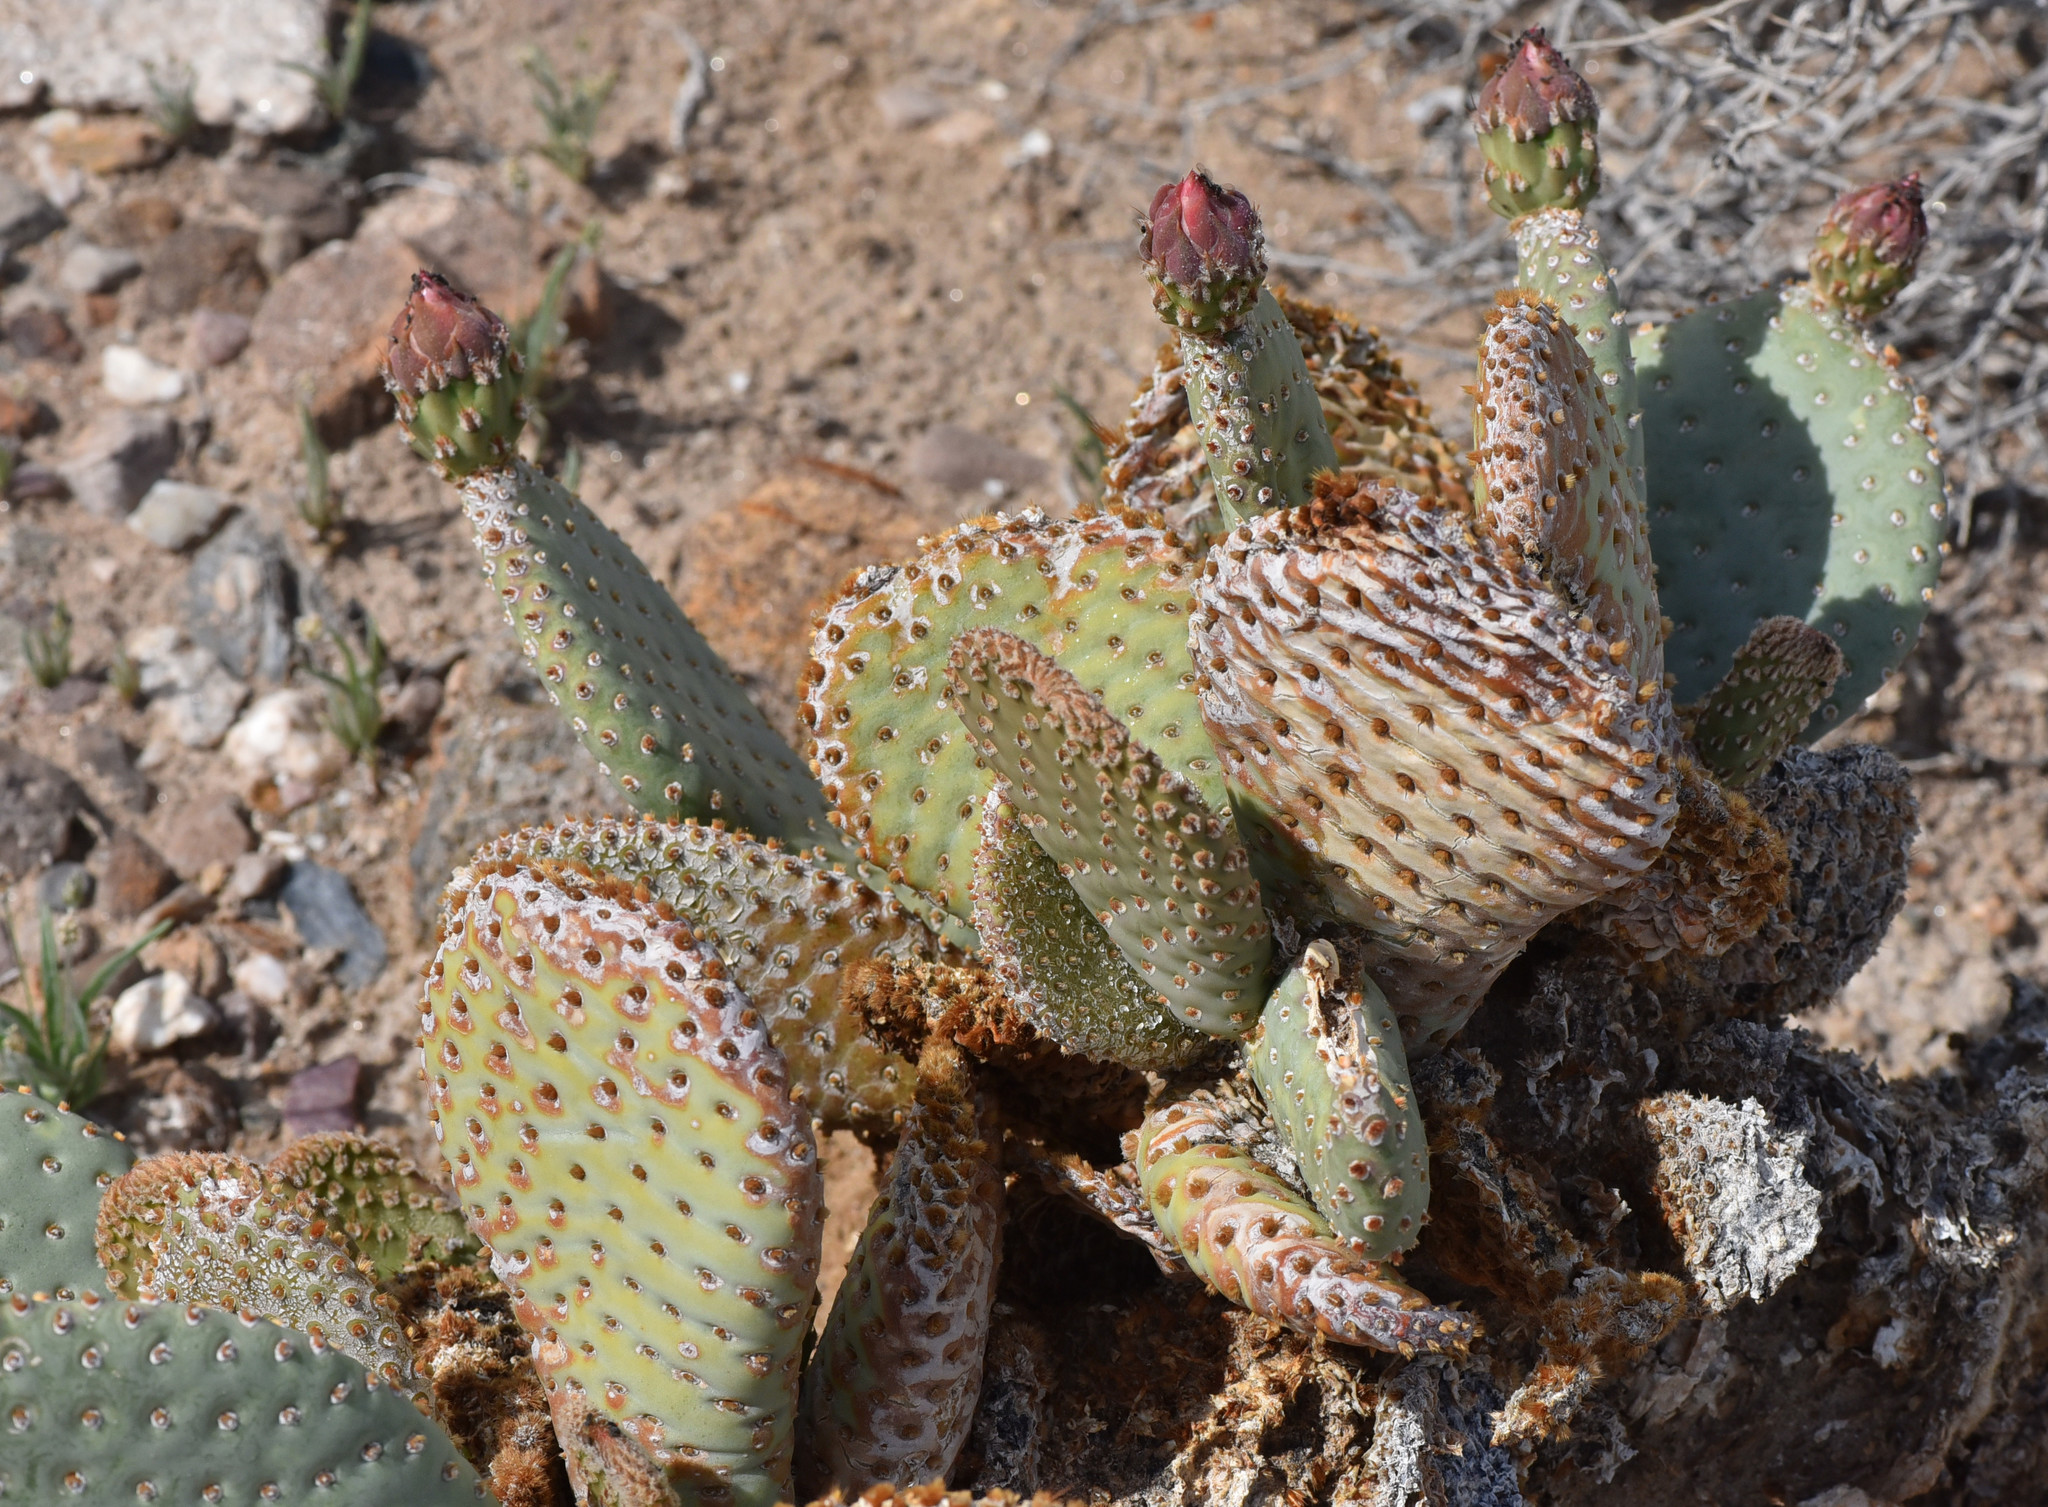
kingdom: Plantae
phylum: Tracheophyta
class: Magnoliopsida
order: Caryophyllales
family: Cactaceae
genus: Opuntia
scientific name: Opuntia basilaris
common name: Beavertail prickly-pear
